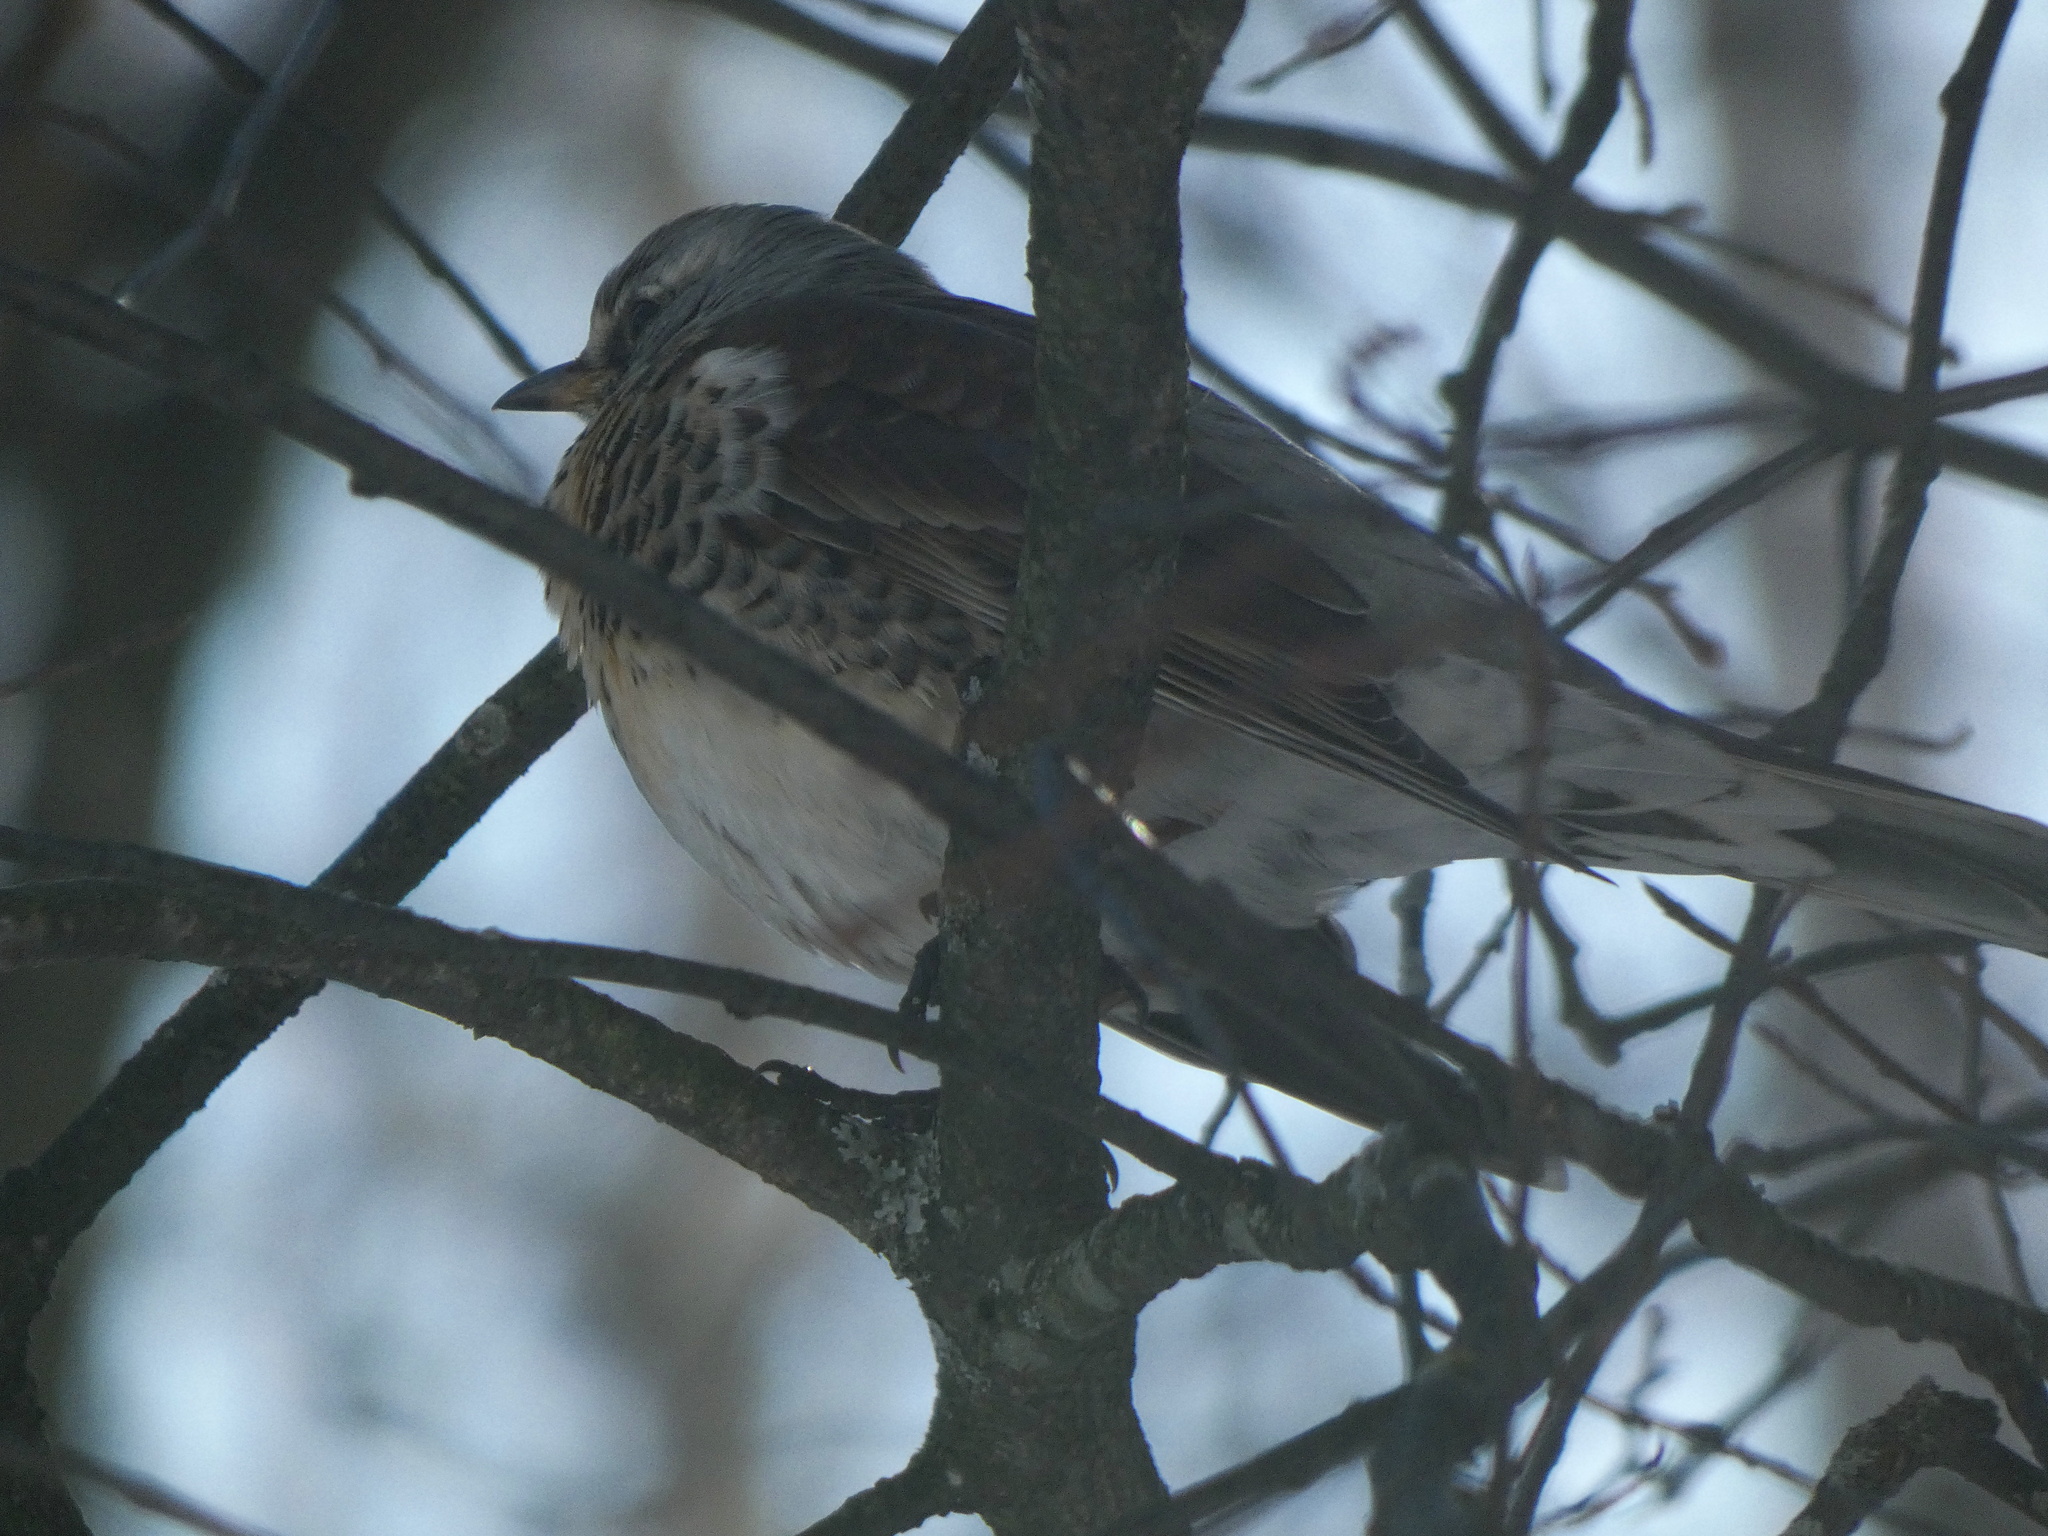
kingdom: Animalia
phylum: Chordata
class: Aves
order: Passeriformes
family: Turdidae
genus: Turdus
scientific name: Turdus pilaris
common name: Fieldfare
